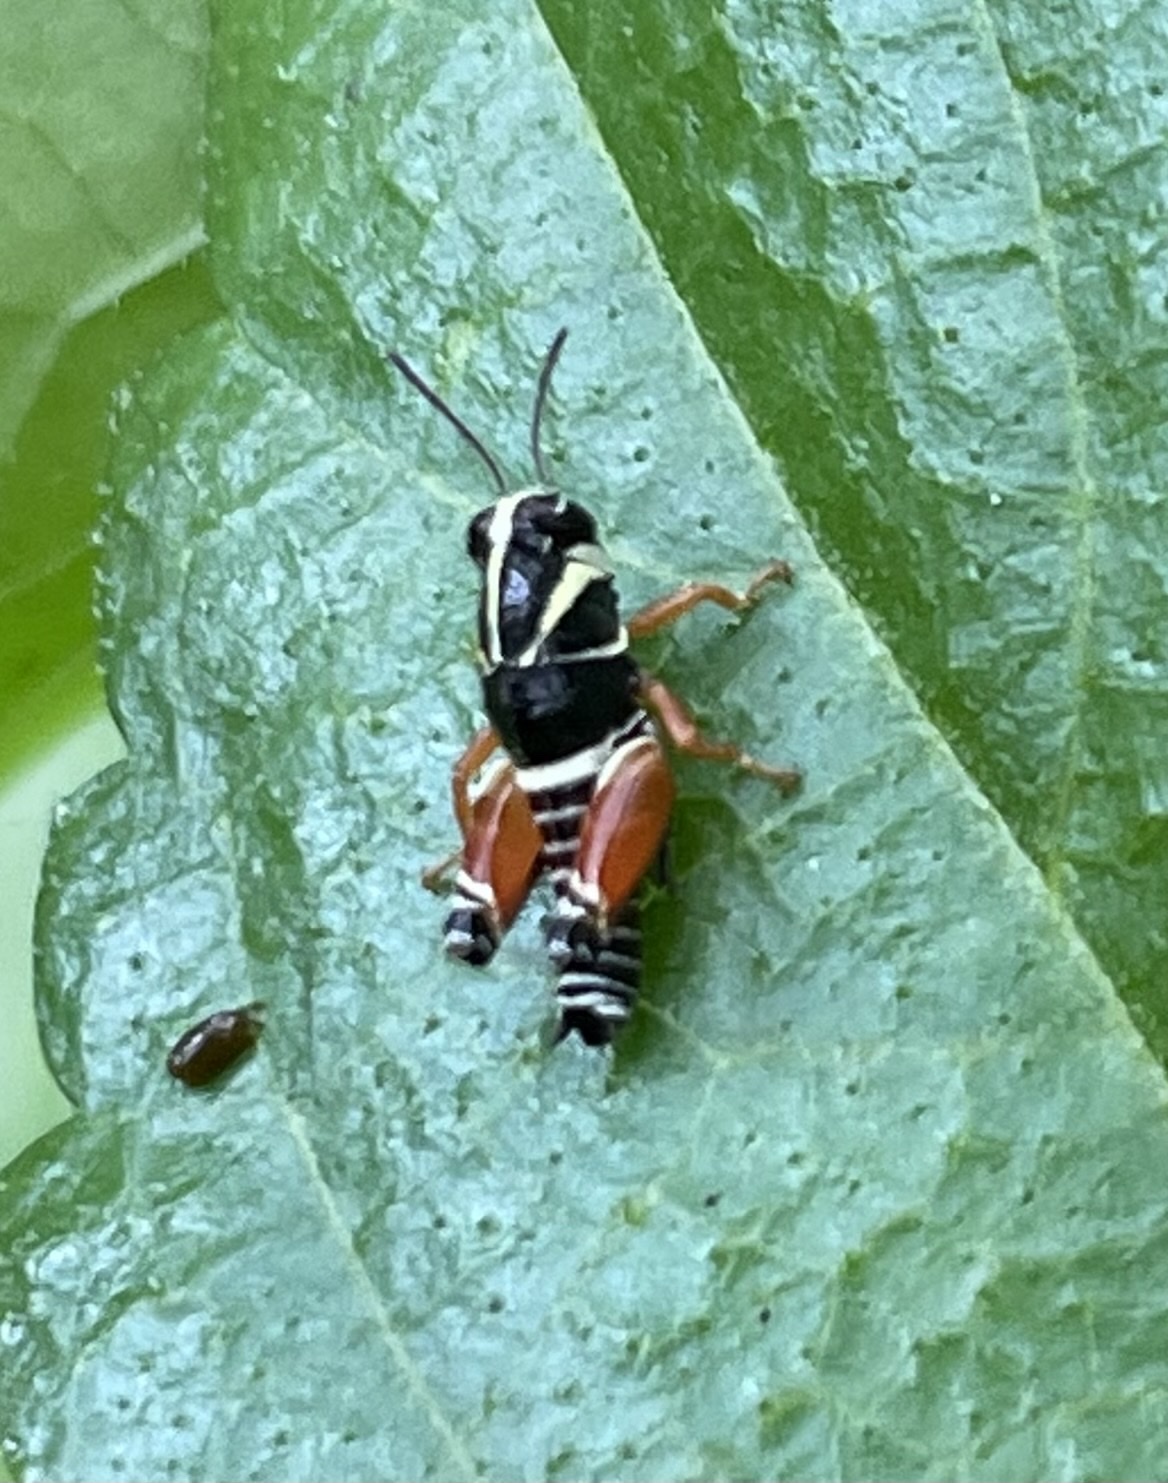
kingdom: Animalia
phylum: Arthropoda
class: Insecta
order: Orthoptera
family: Acrididae
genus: Aidemona
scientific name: Aidemona azteca
